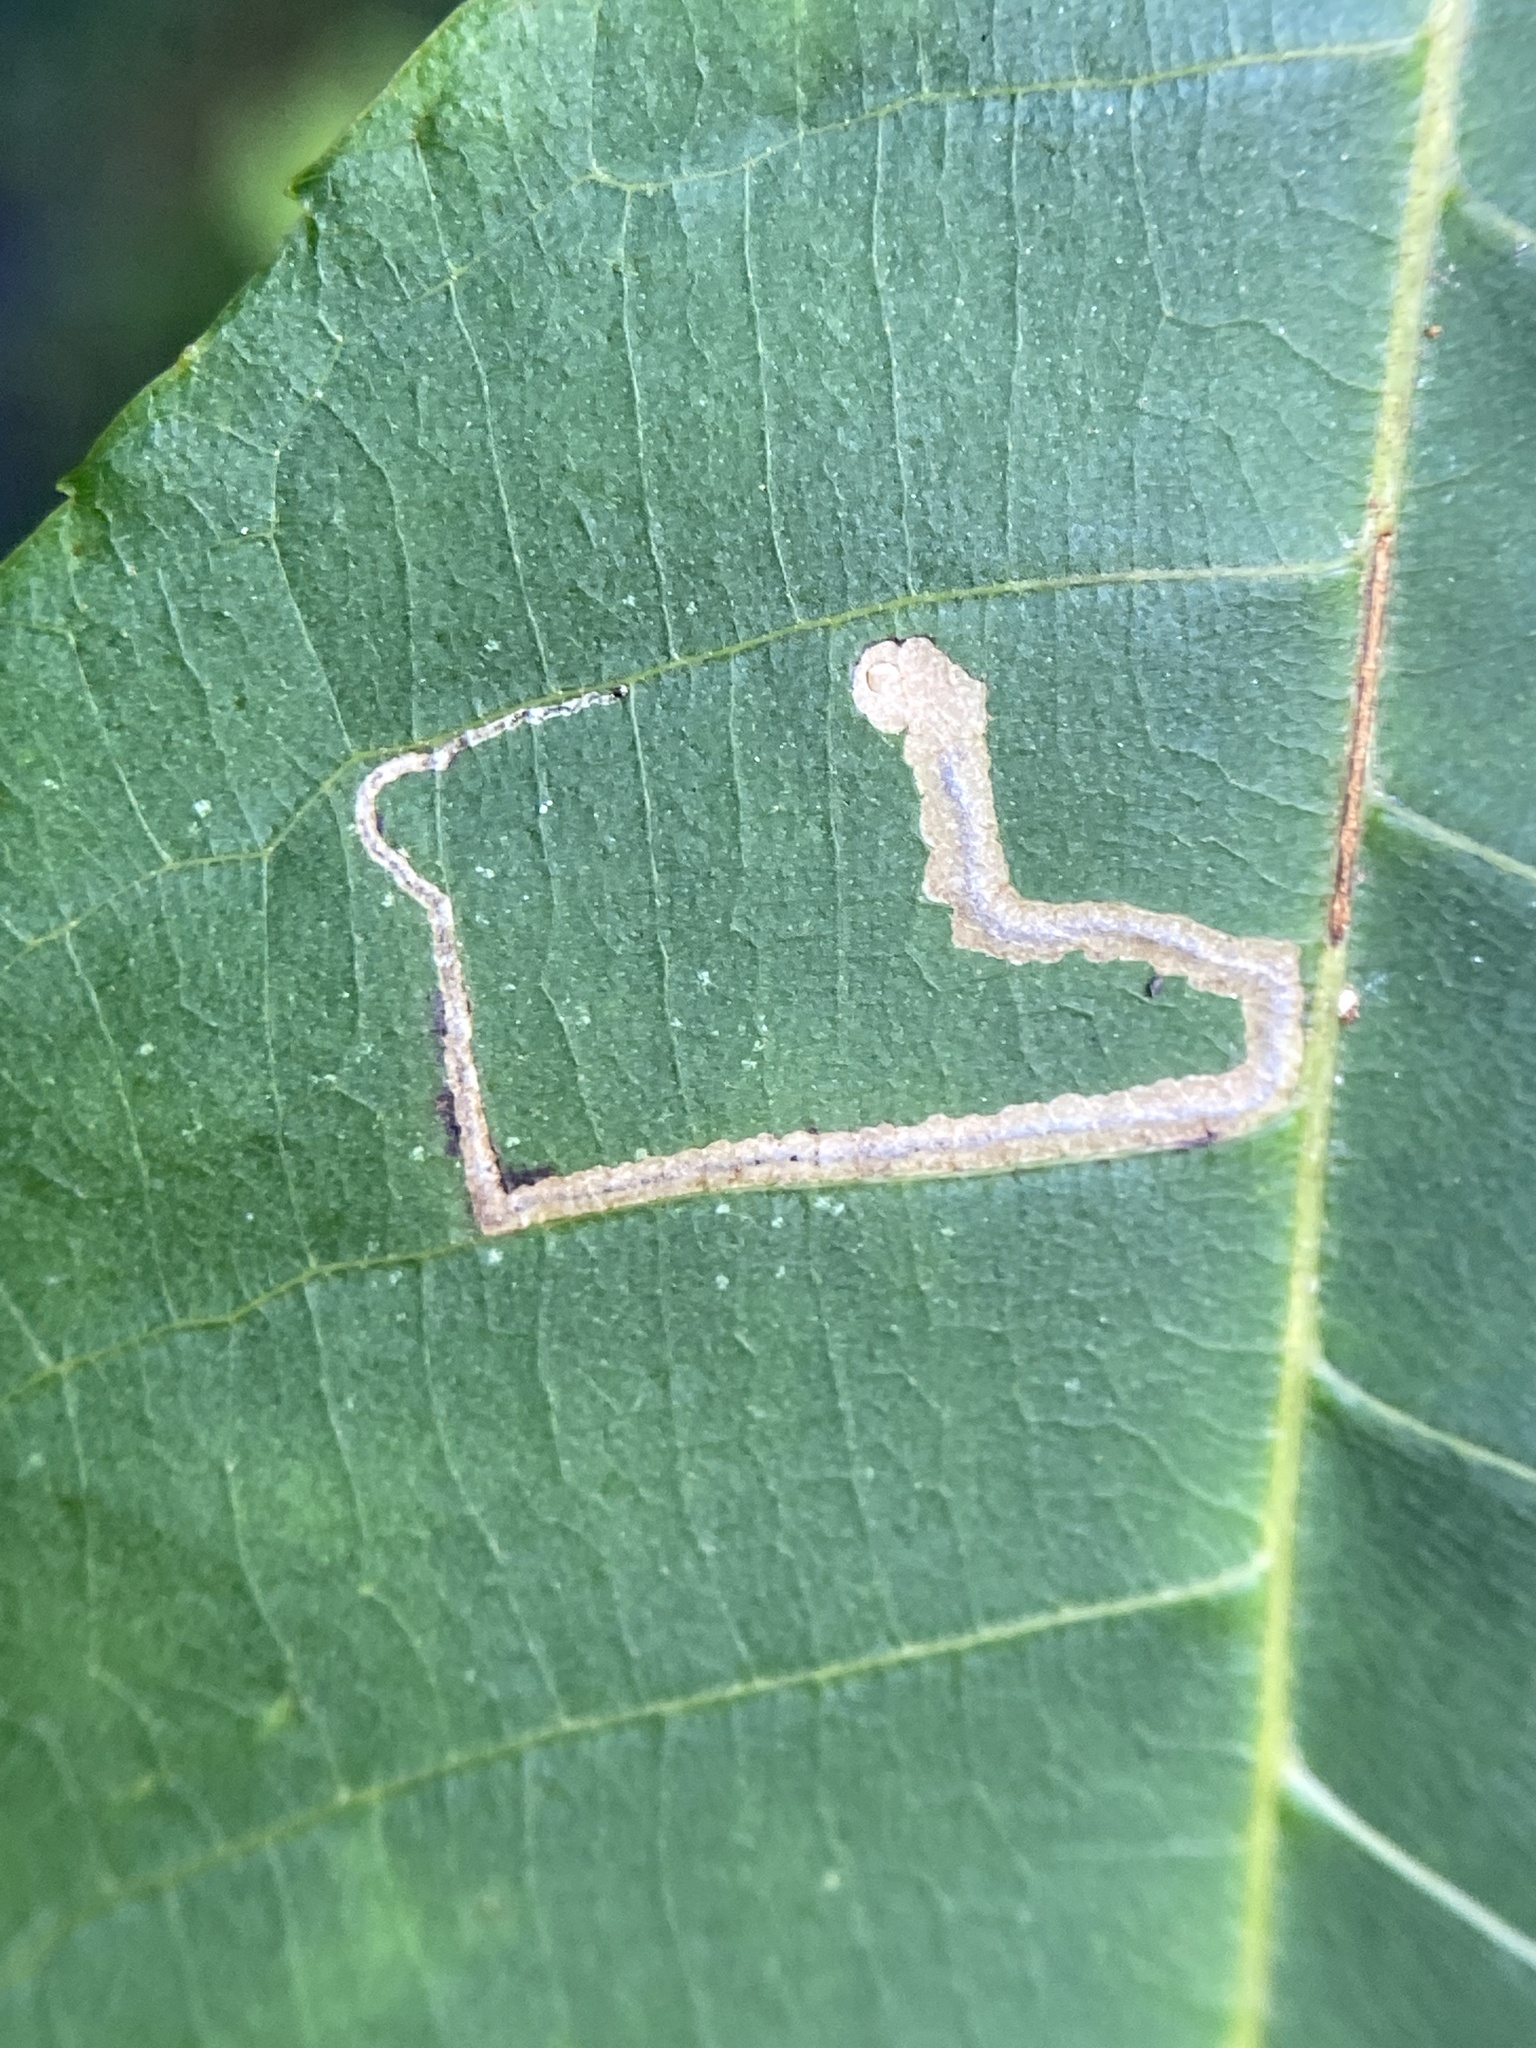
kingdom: Animalia
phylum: Arthropoda
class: Insecta
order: Lepidoptera
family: Nepticulidae
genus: Stigmella
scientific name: Stigmella caryaefoliella
